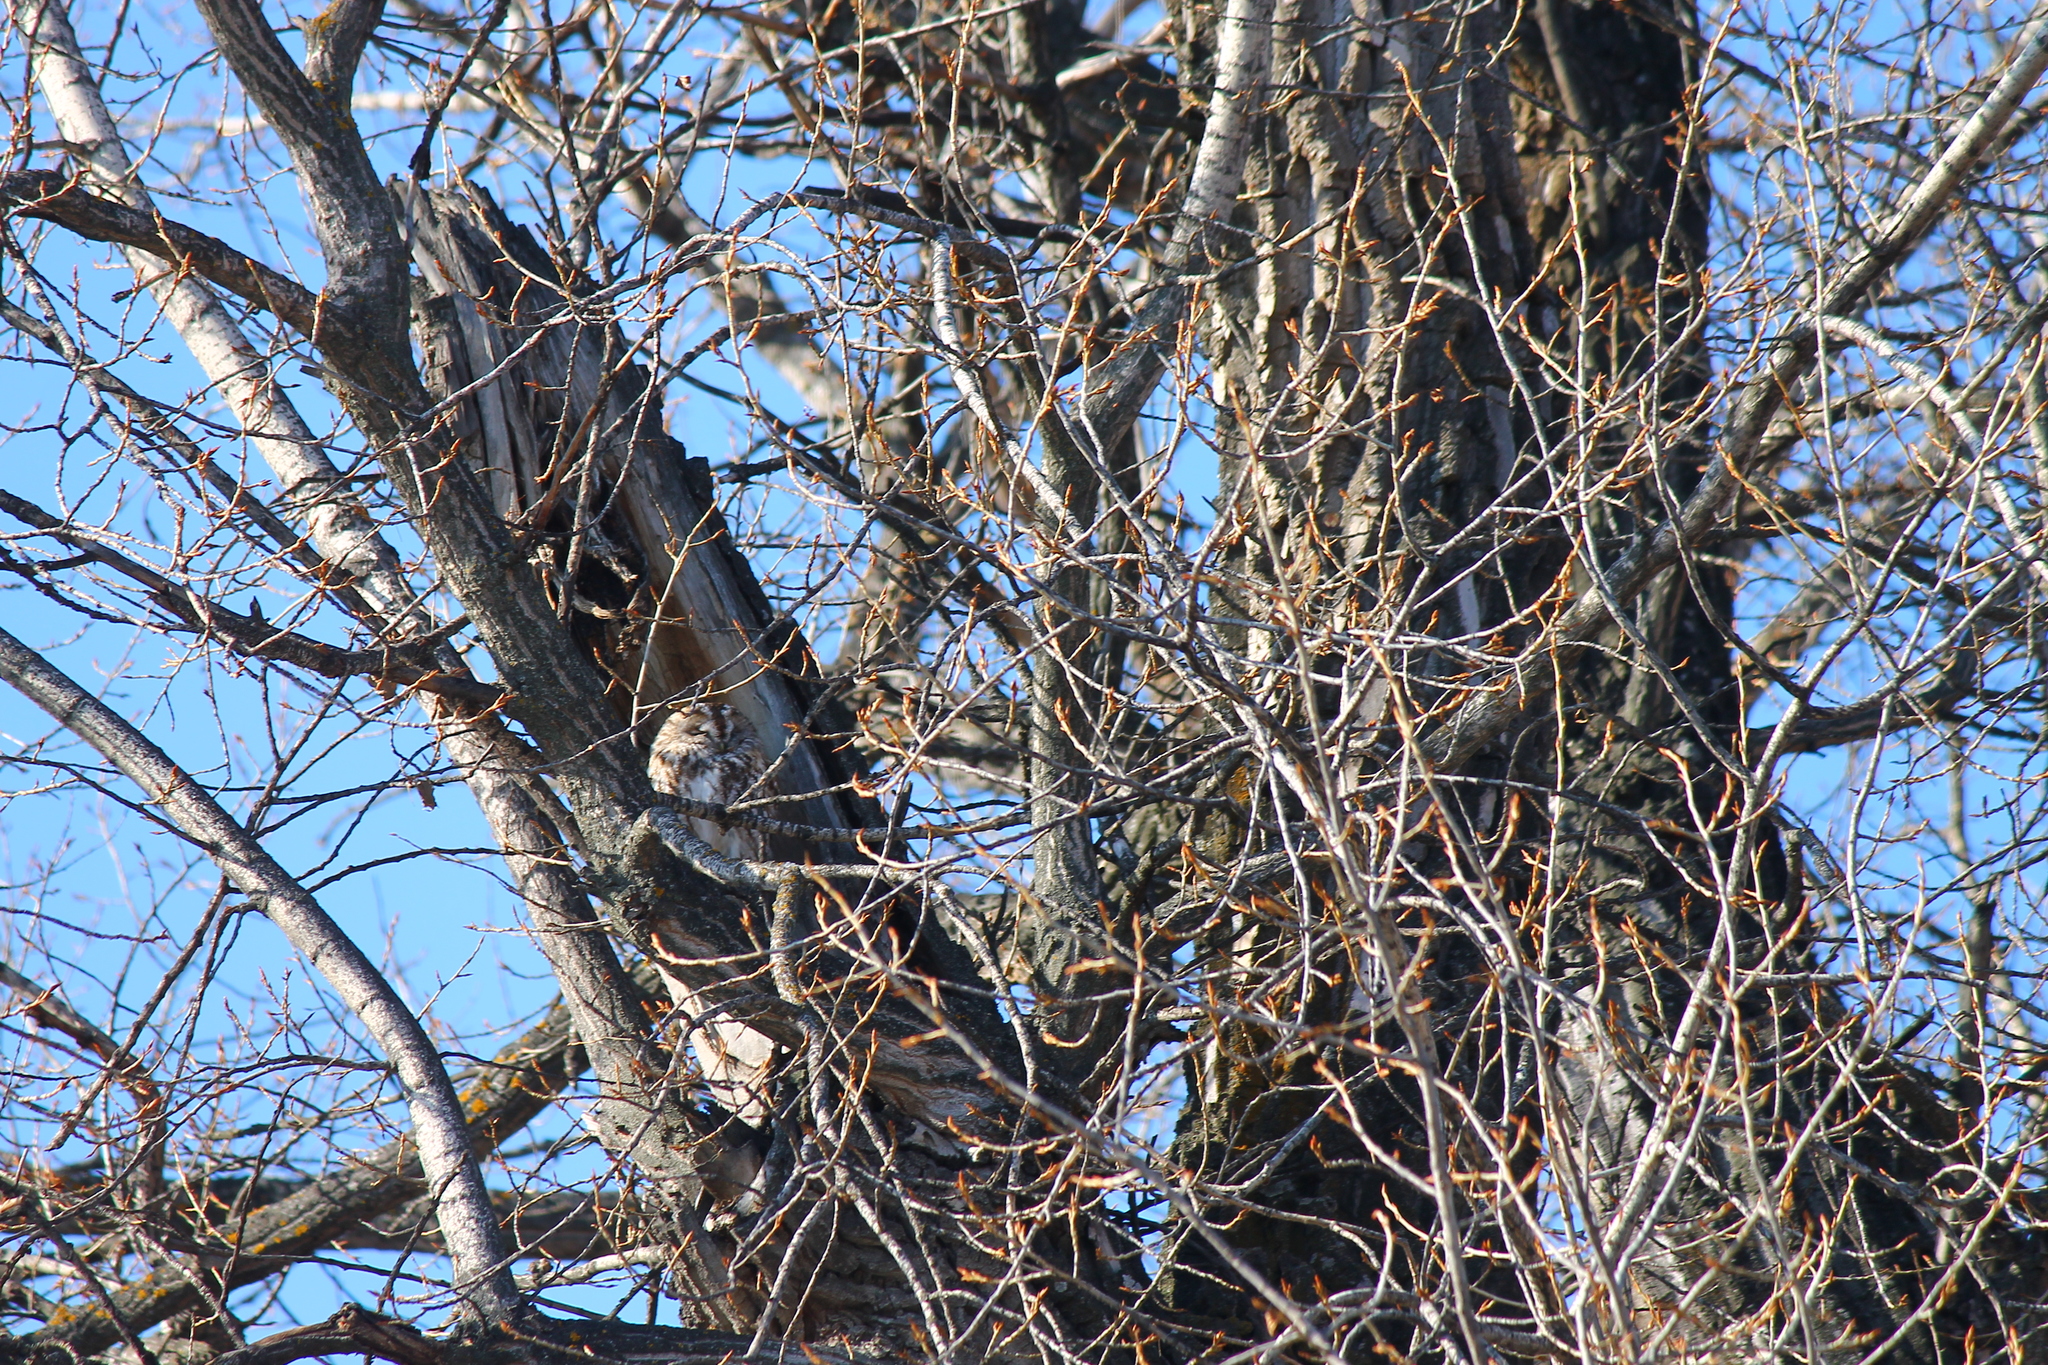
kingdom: Animalia
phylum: Chordata
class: Aves
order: Strigiformes
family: Strigidae
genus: Strix
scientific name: Strix aluco
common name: Tawny owl
